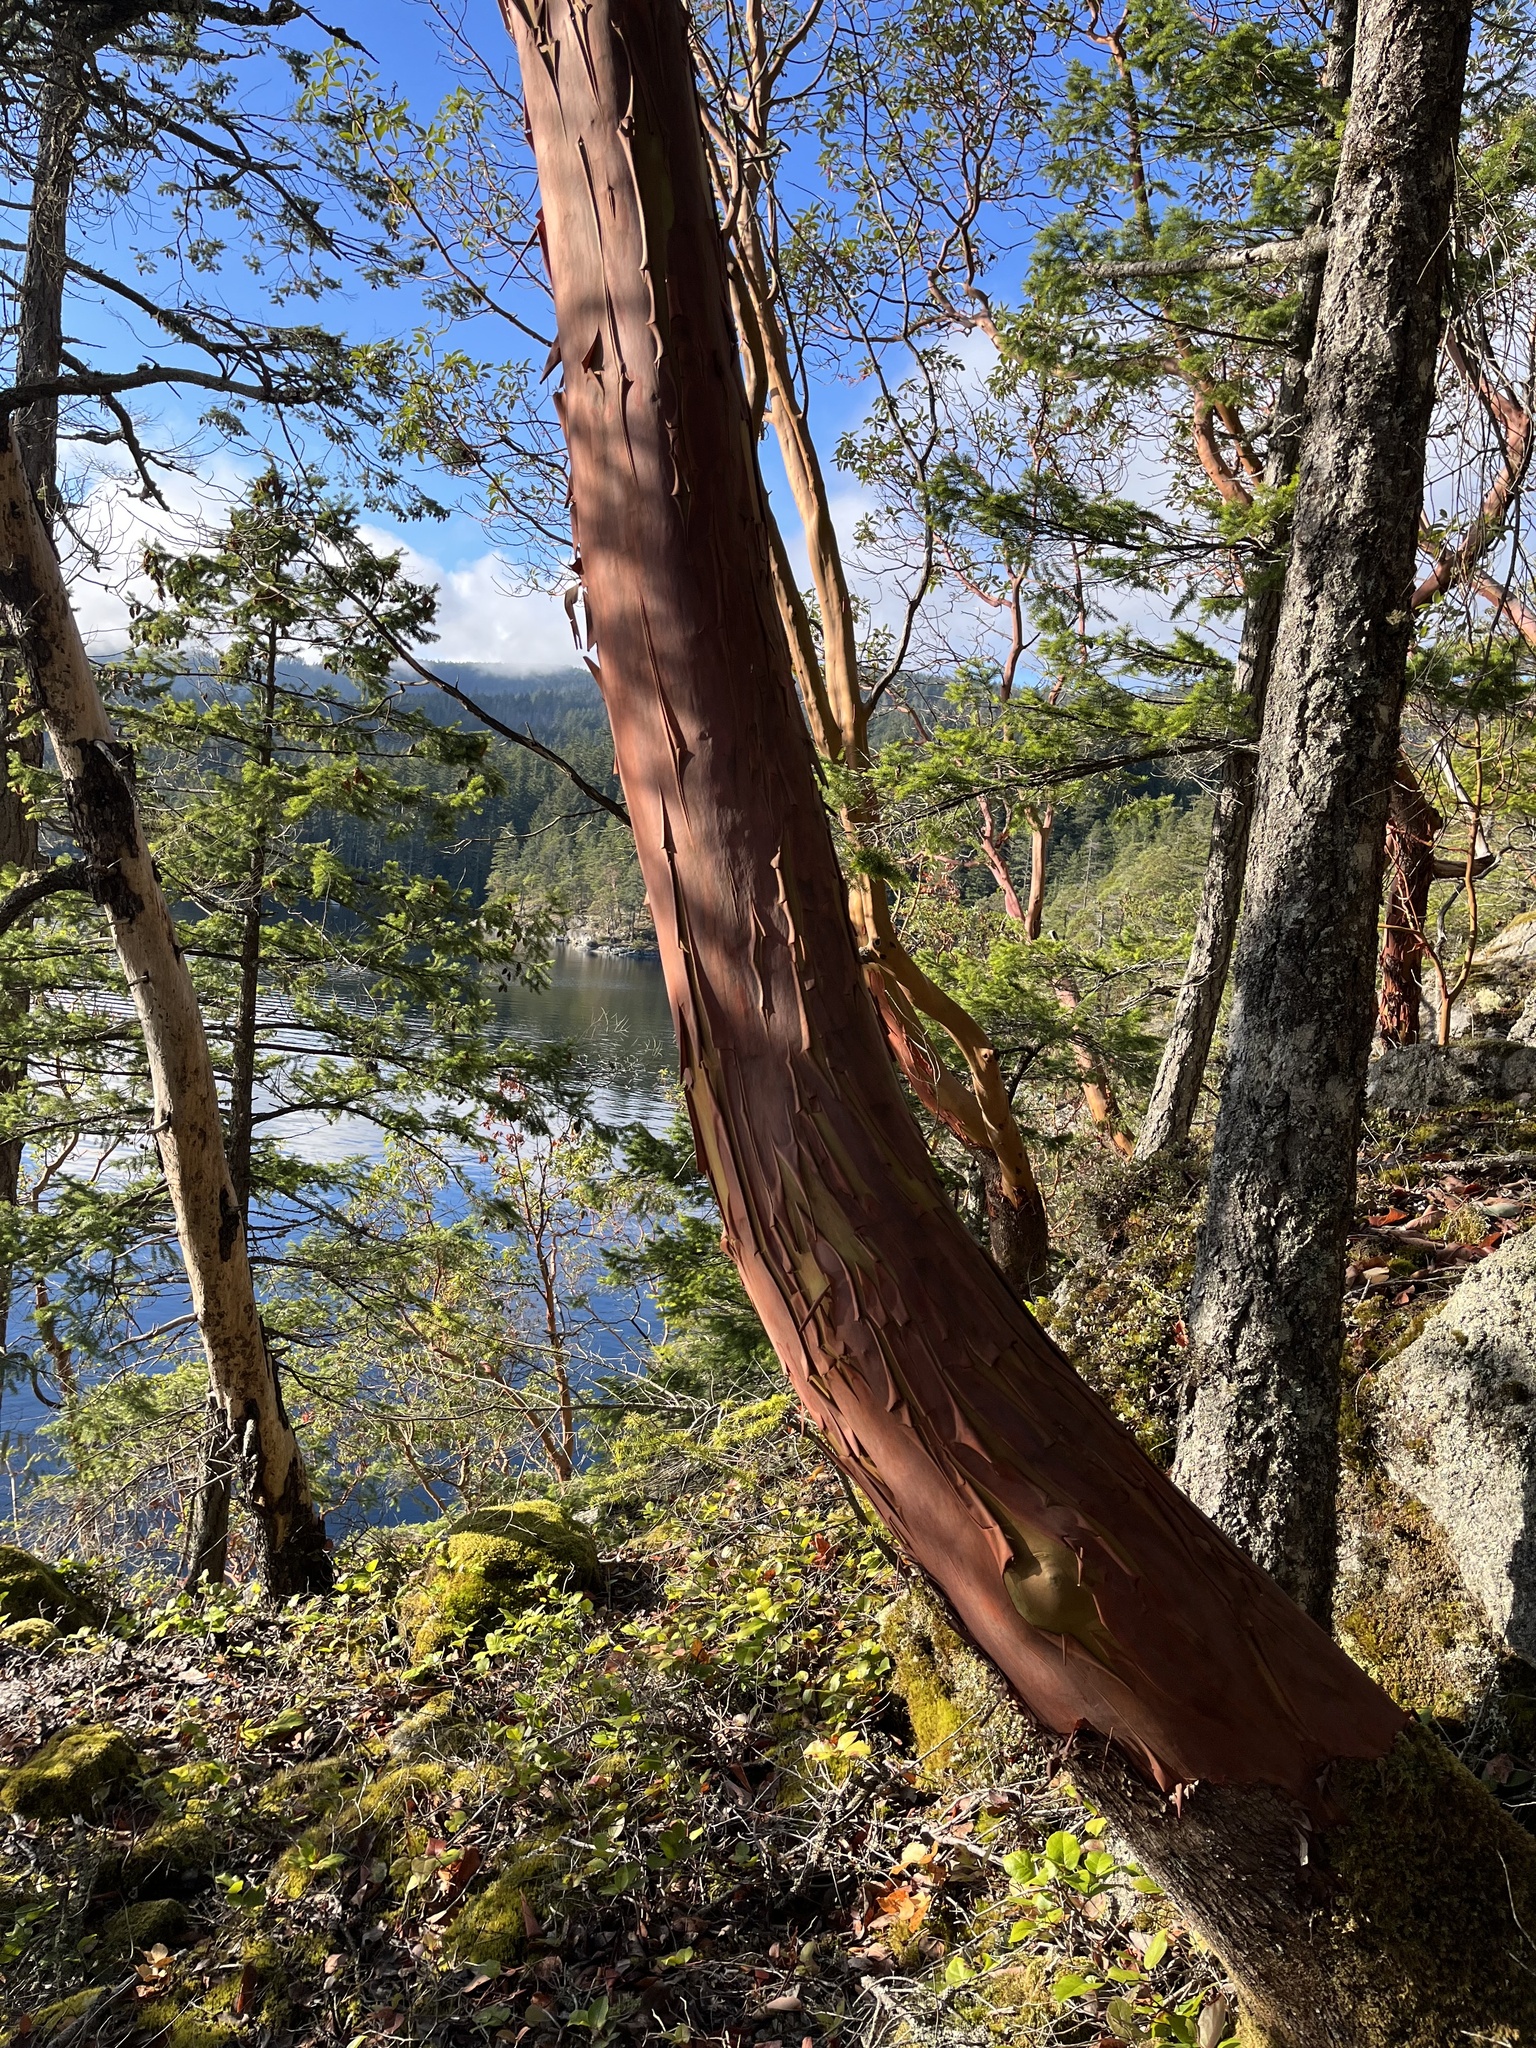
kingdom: Plantae
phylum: Tracheophyta
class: Magnoliopsida
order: Ericales
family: Ericaceae
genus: Arbutus
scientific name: Arbutus menziesii
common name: Pacific madrone
